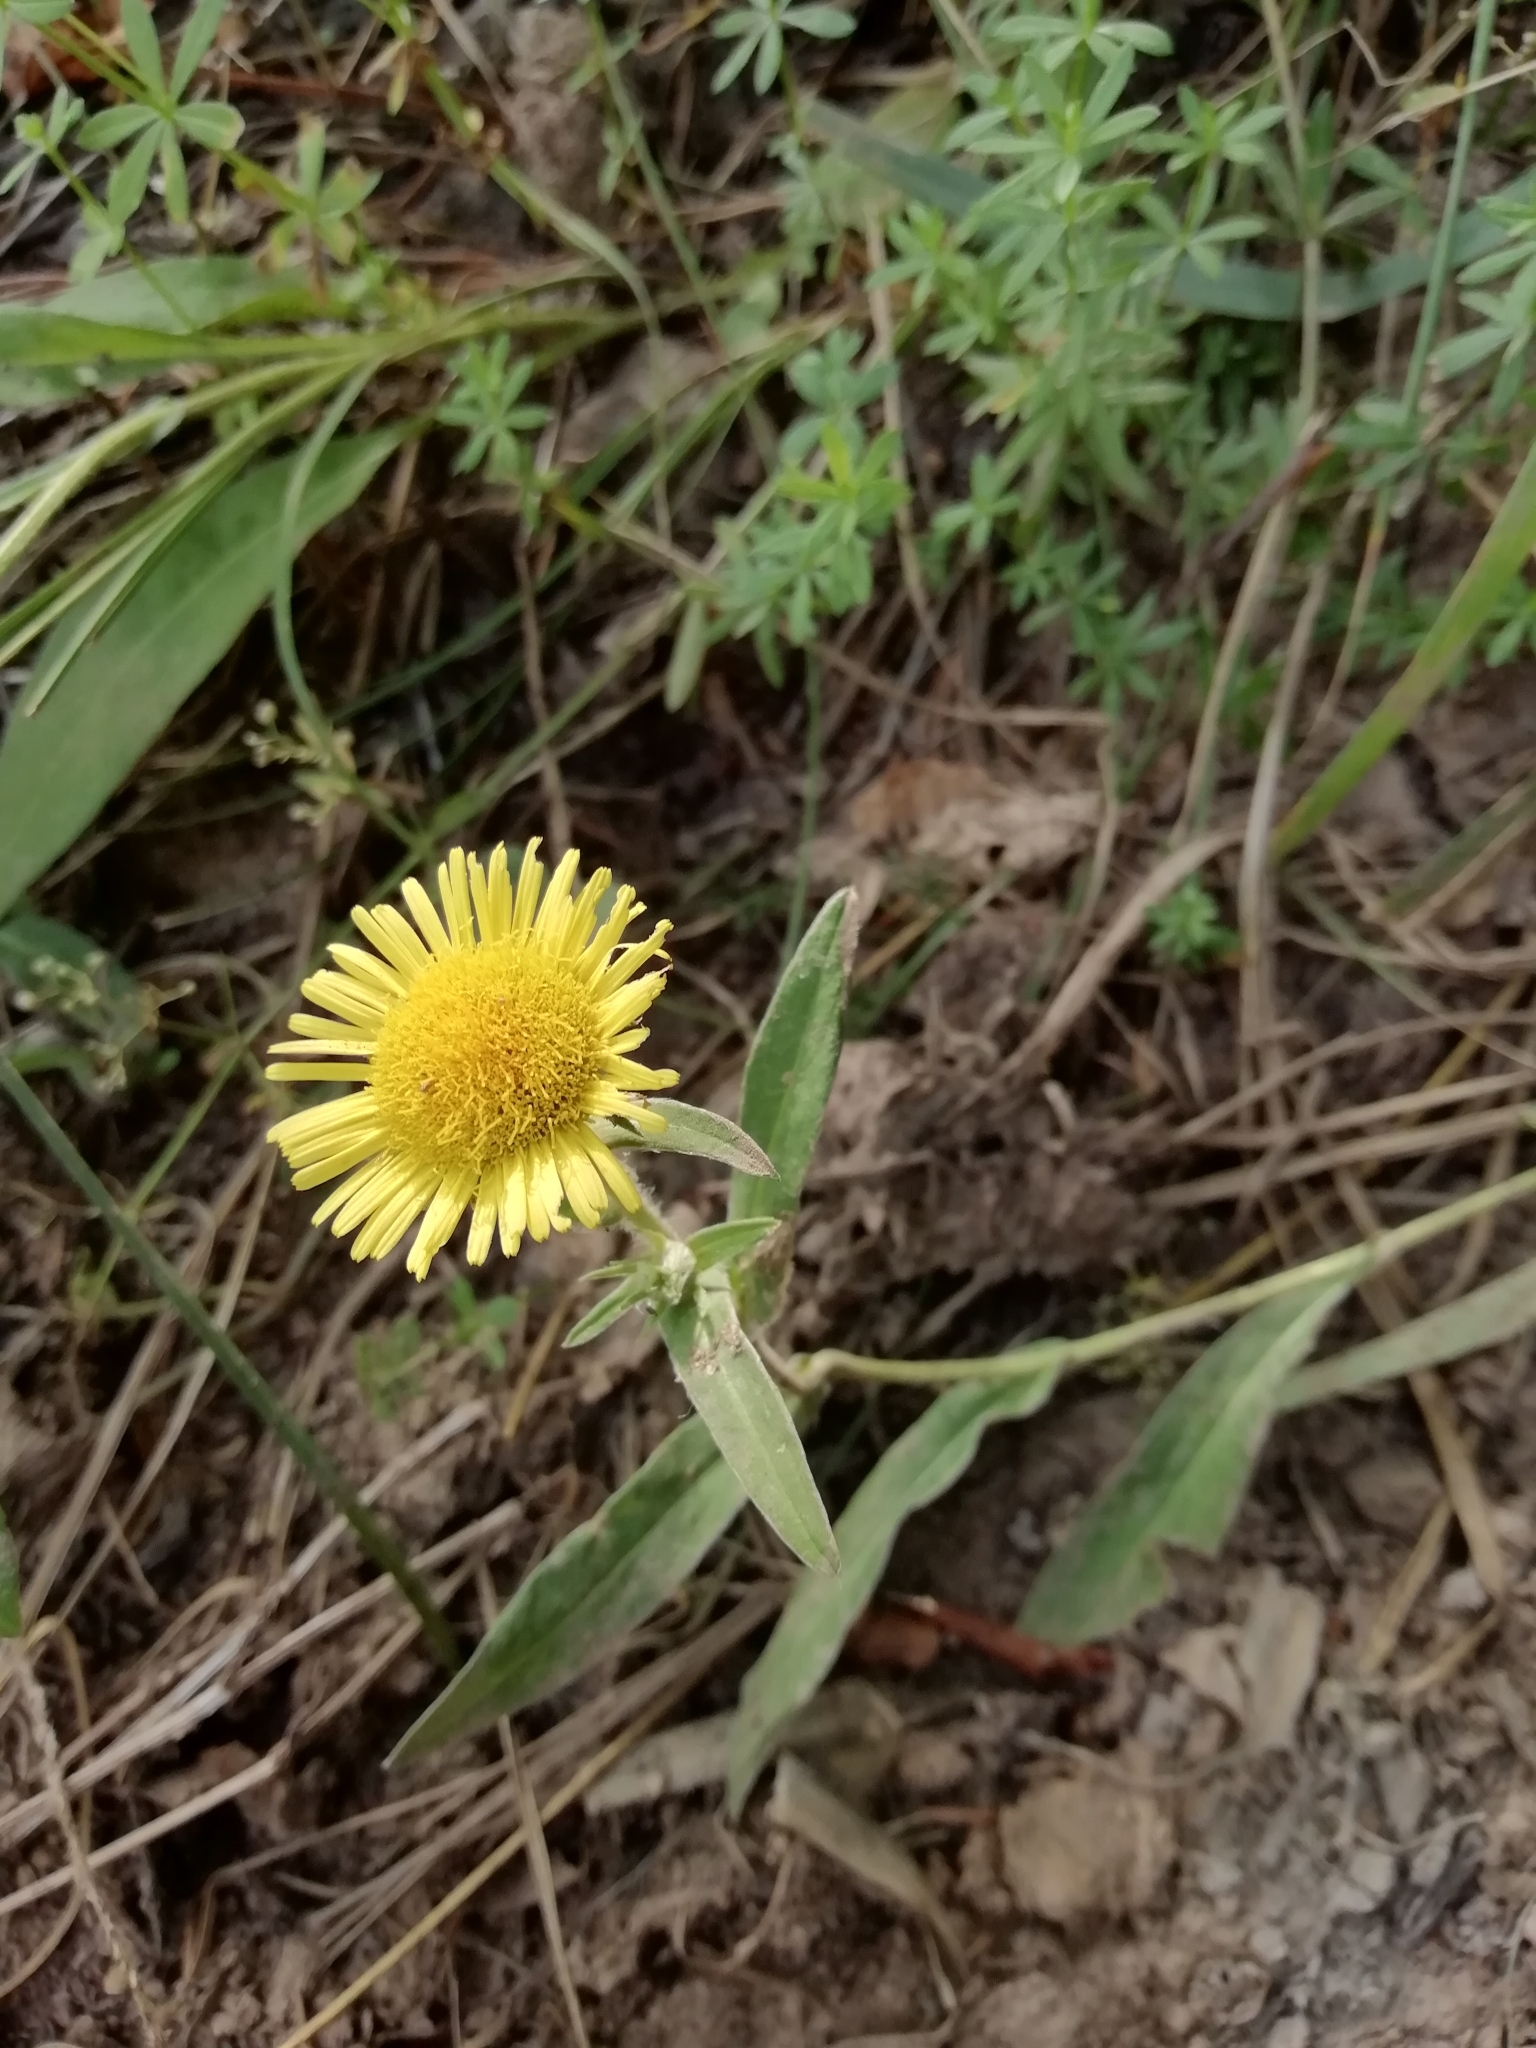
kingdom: Plantae
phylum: Tracheophyta
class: Magnoliopsida
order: Asterales
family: Asteraceae
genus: Pentanema
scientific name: Pentanema britannicum
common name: British elecampane
